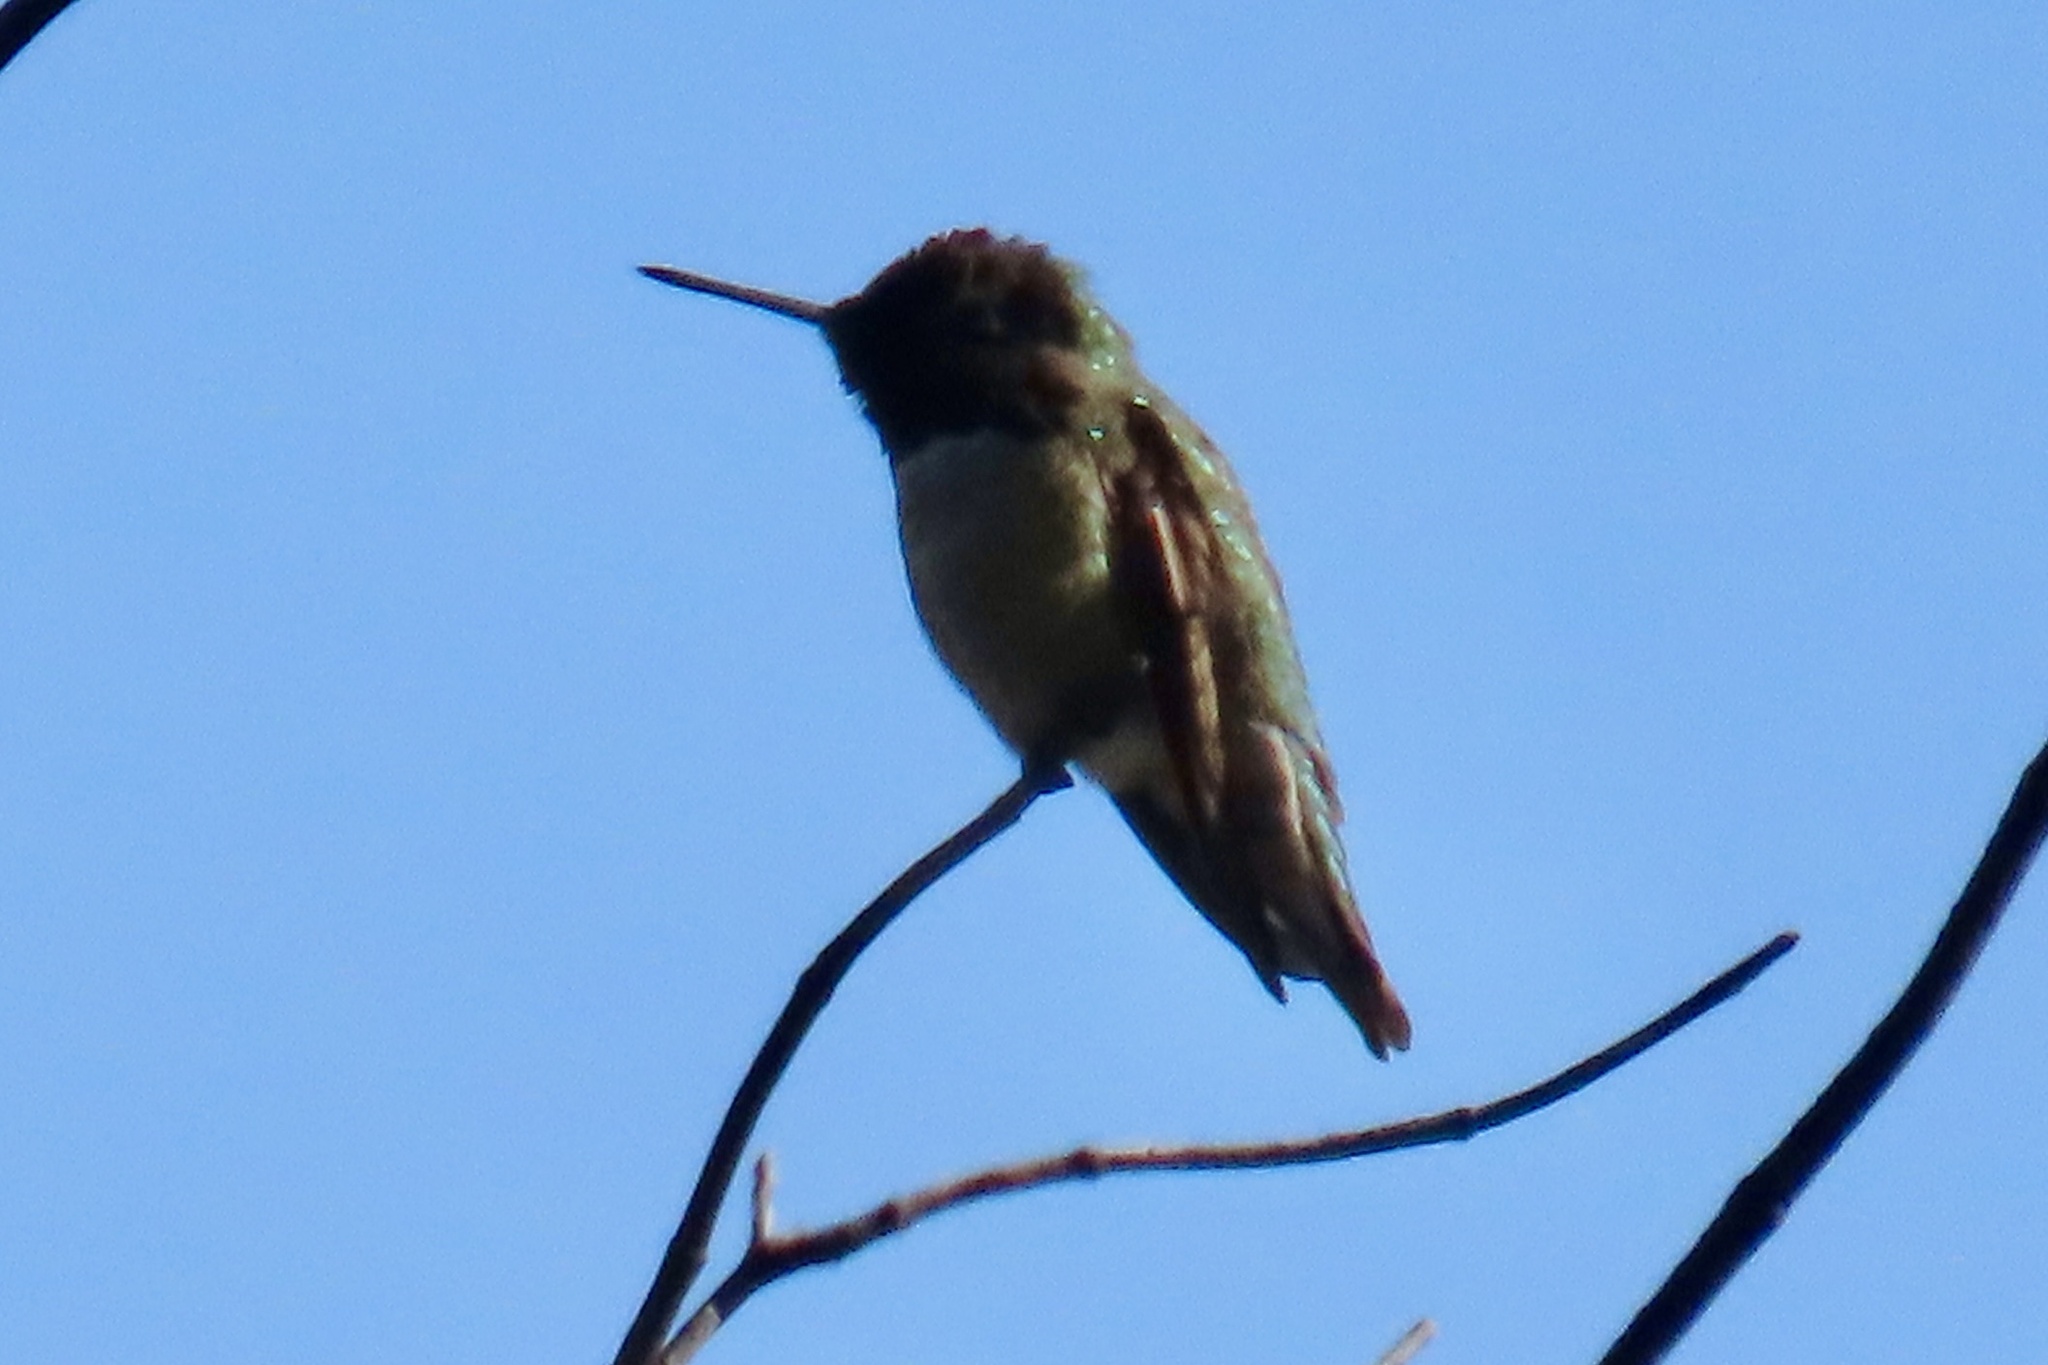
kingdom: Animalia
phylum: Chordata
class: Aves
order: Apodiformes
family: Trochilidae
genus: Calypte
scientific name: Calypte anna
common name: Anna's hummingbird
